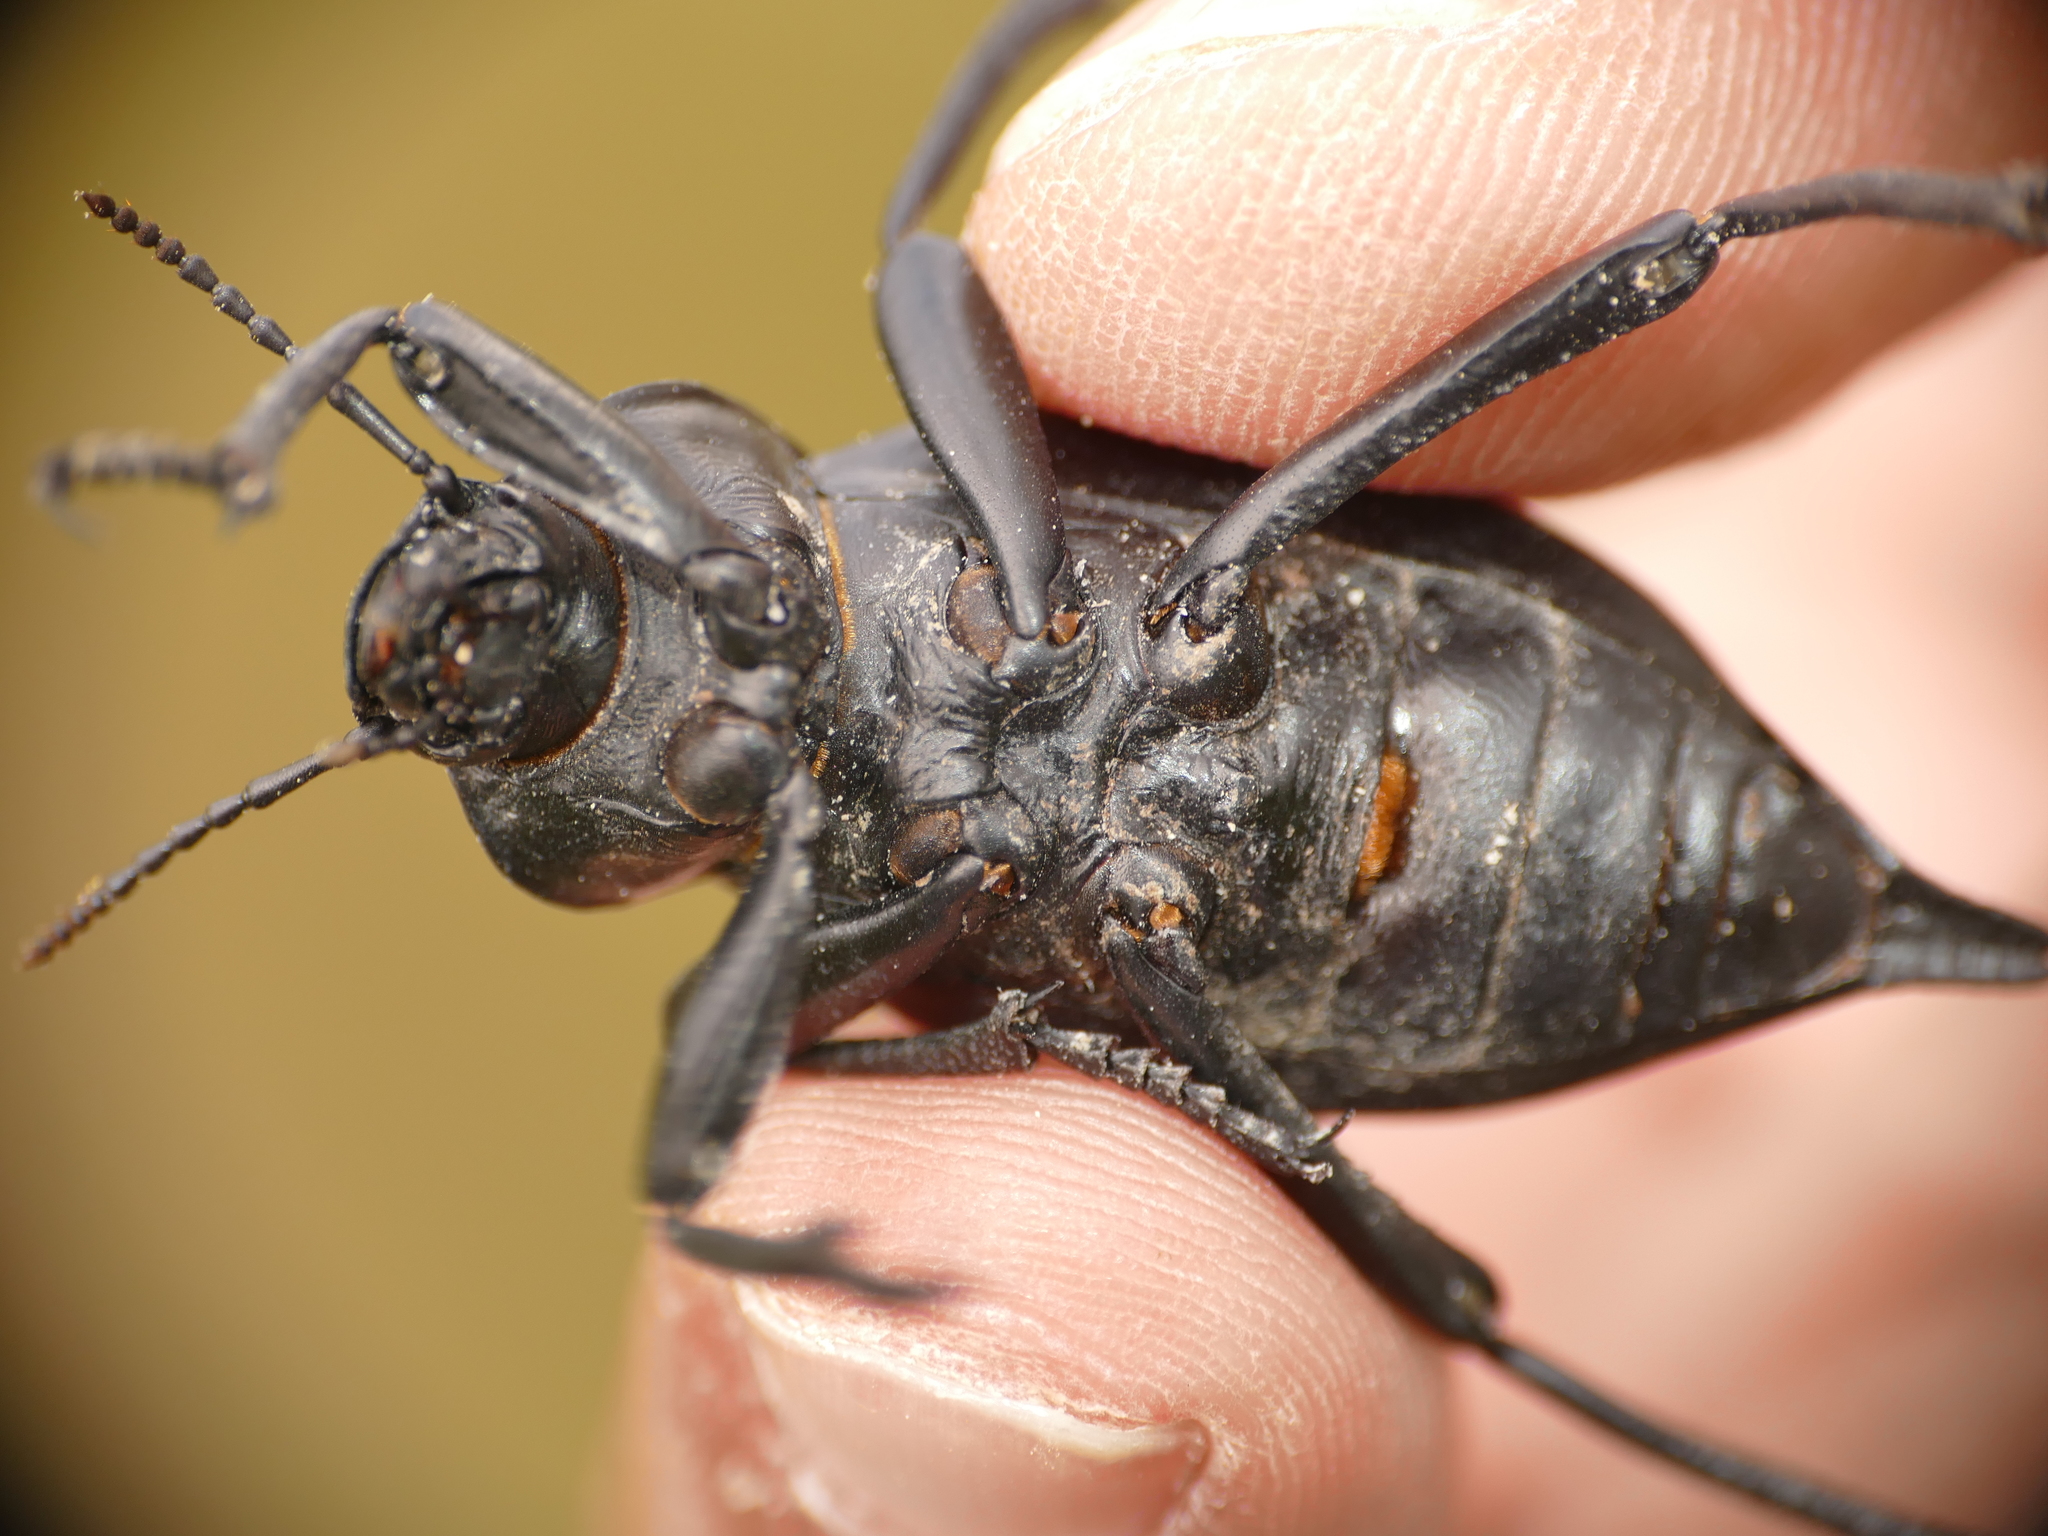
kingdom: Animalia
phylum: Arthropoda
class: Insecta
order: Coleoptera
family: Tenebrionidae
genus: Blaps
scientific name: Blaps hispanica
